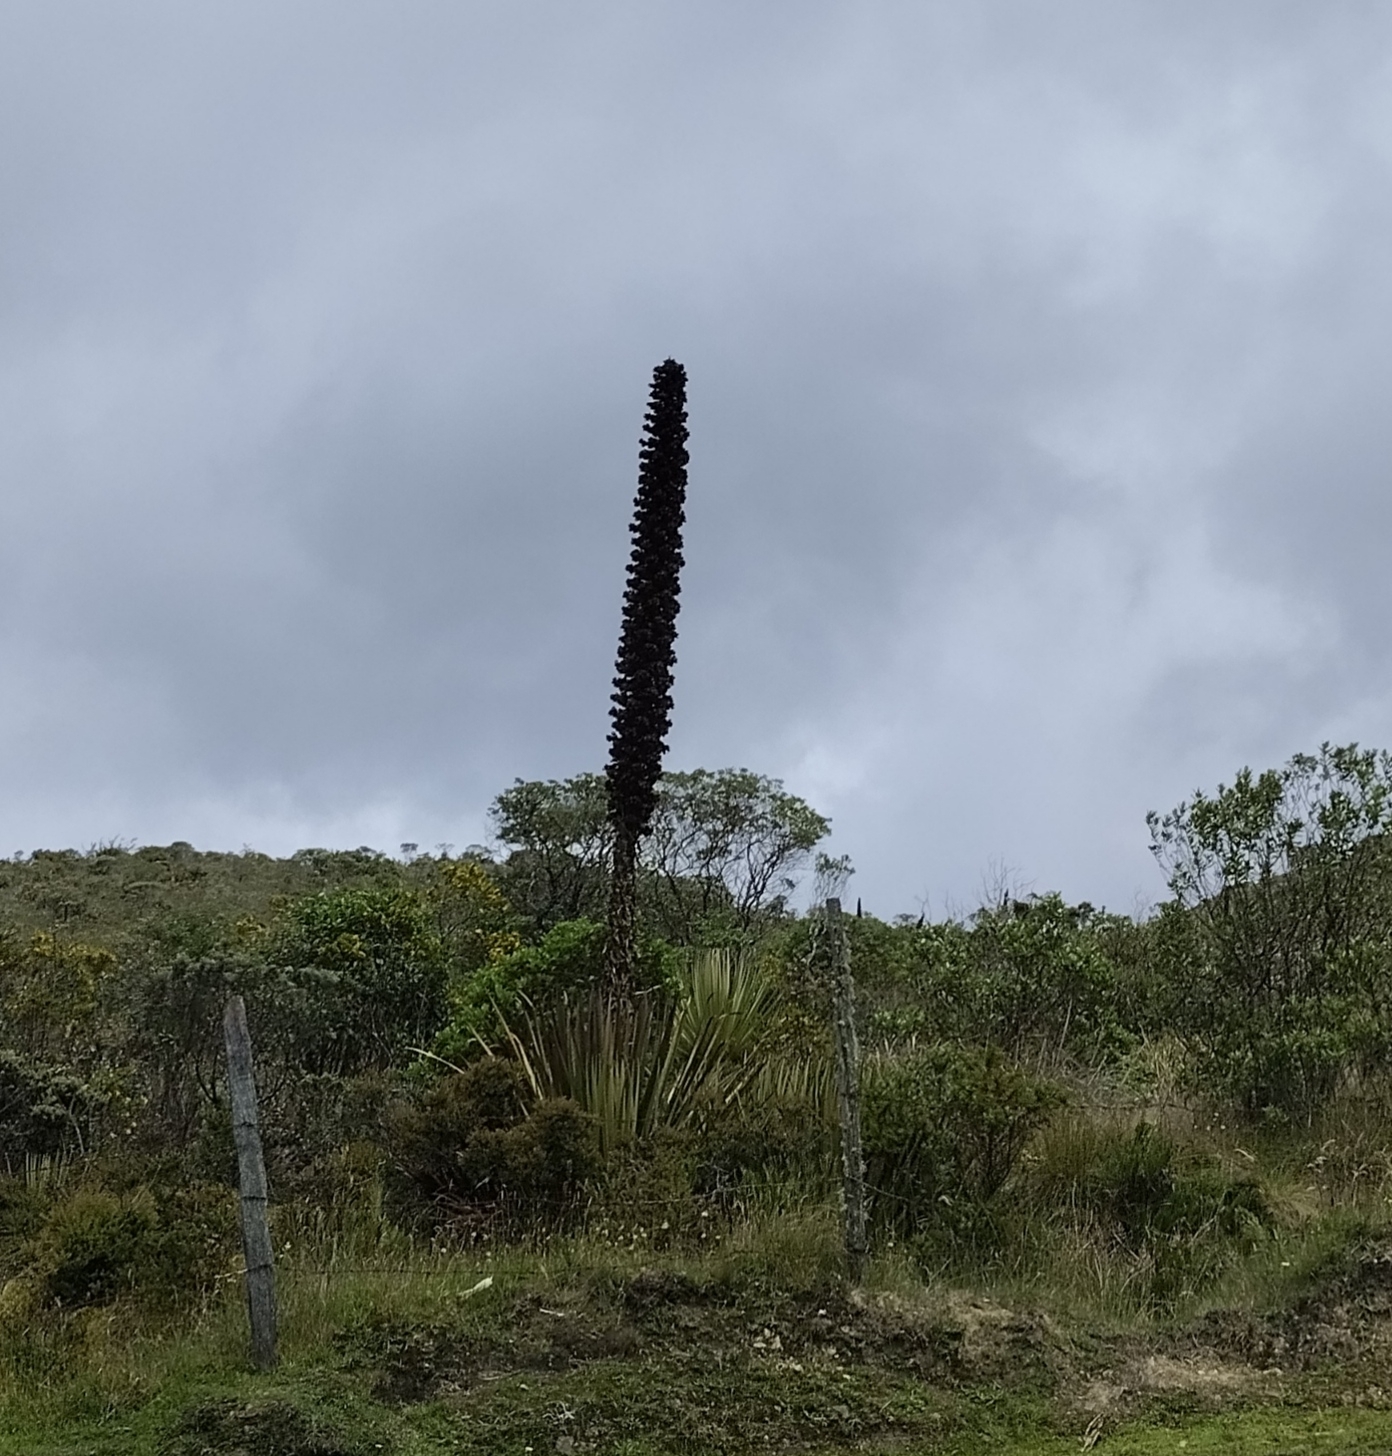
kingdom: Plantae
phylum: Tracheophyta
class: Liliopsida
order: Poales
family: Bromeliaceae
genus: Puya
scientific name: Puya goudotiana
